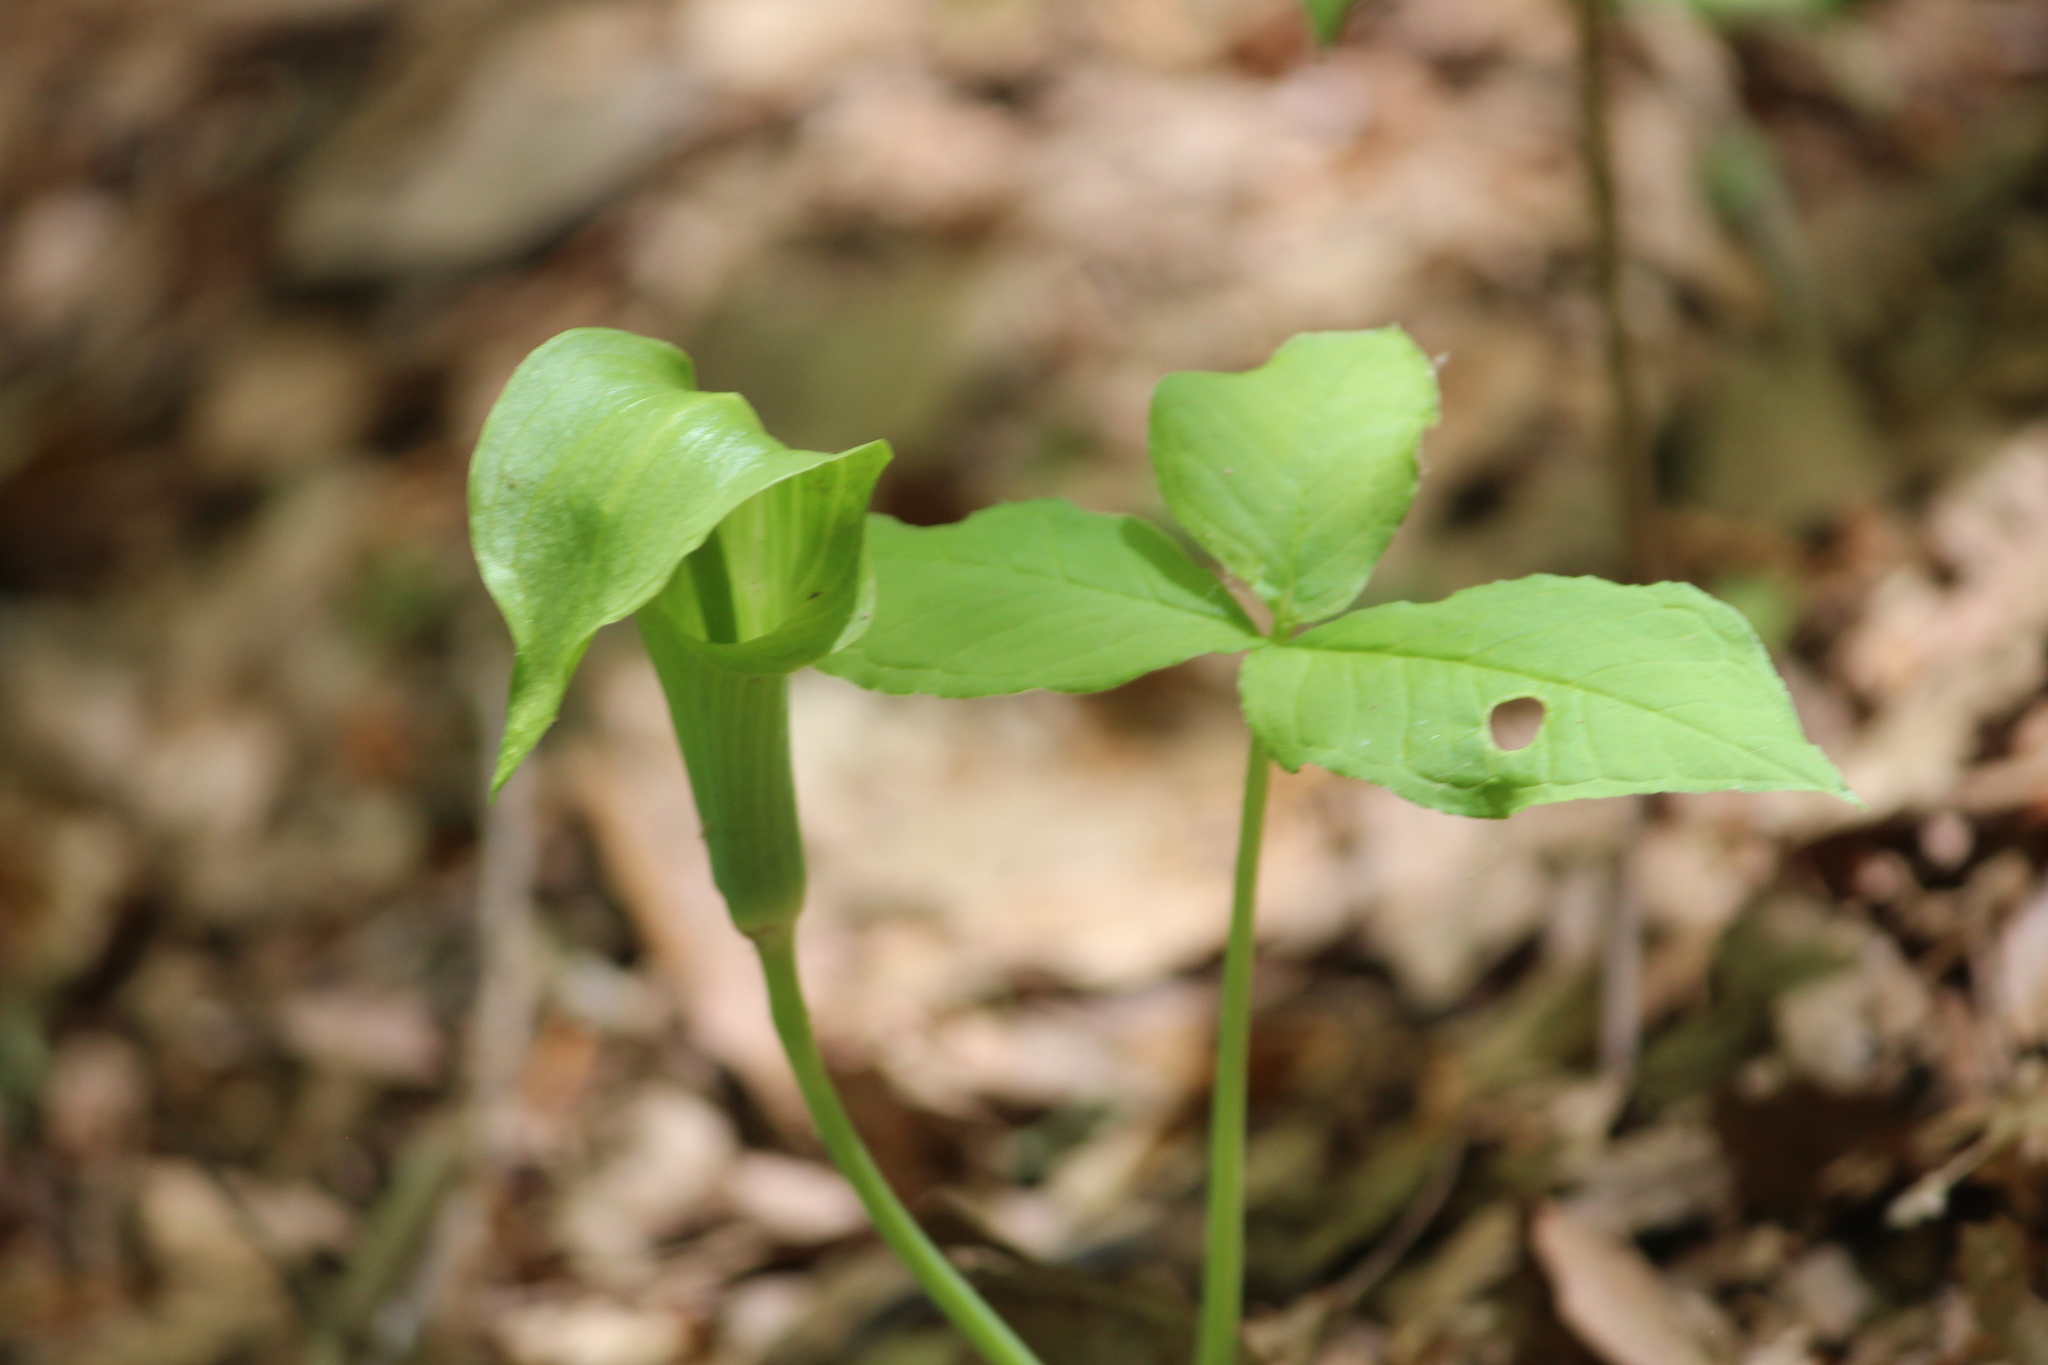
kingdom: Plantae
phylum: Tracheophyta
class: Liliopsida
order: Alismatales
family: Araceae
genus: Arisaema
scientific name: Arisaema triphyllum
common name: Jack-in-the-pulpit
